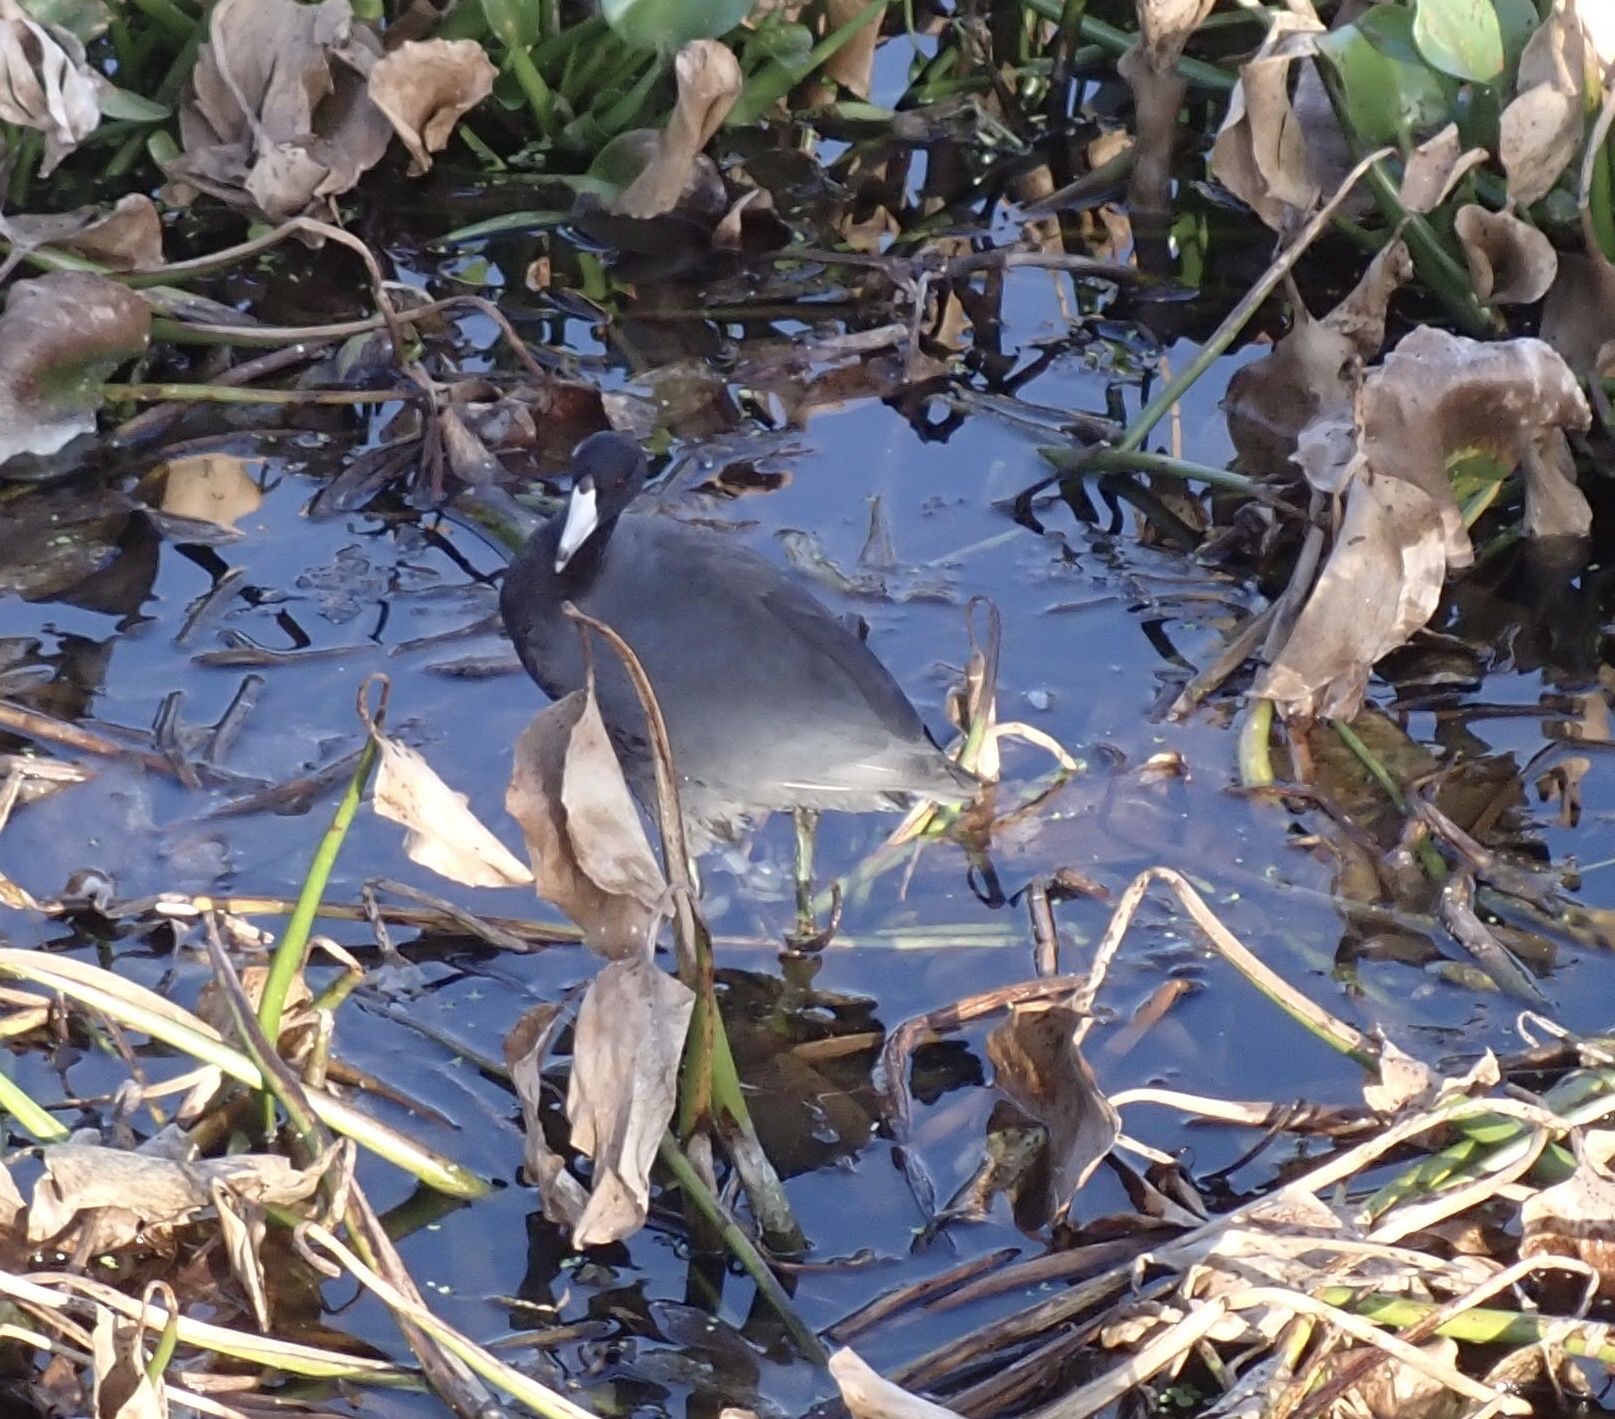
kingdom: Animalia
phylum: Chordata
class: Aves
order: Gruiformes
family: Rallidae
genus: Fulica
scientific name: Fulica americana
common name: American coot
